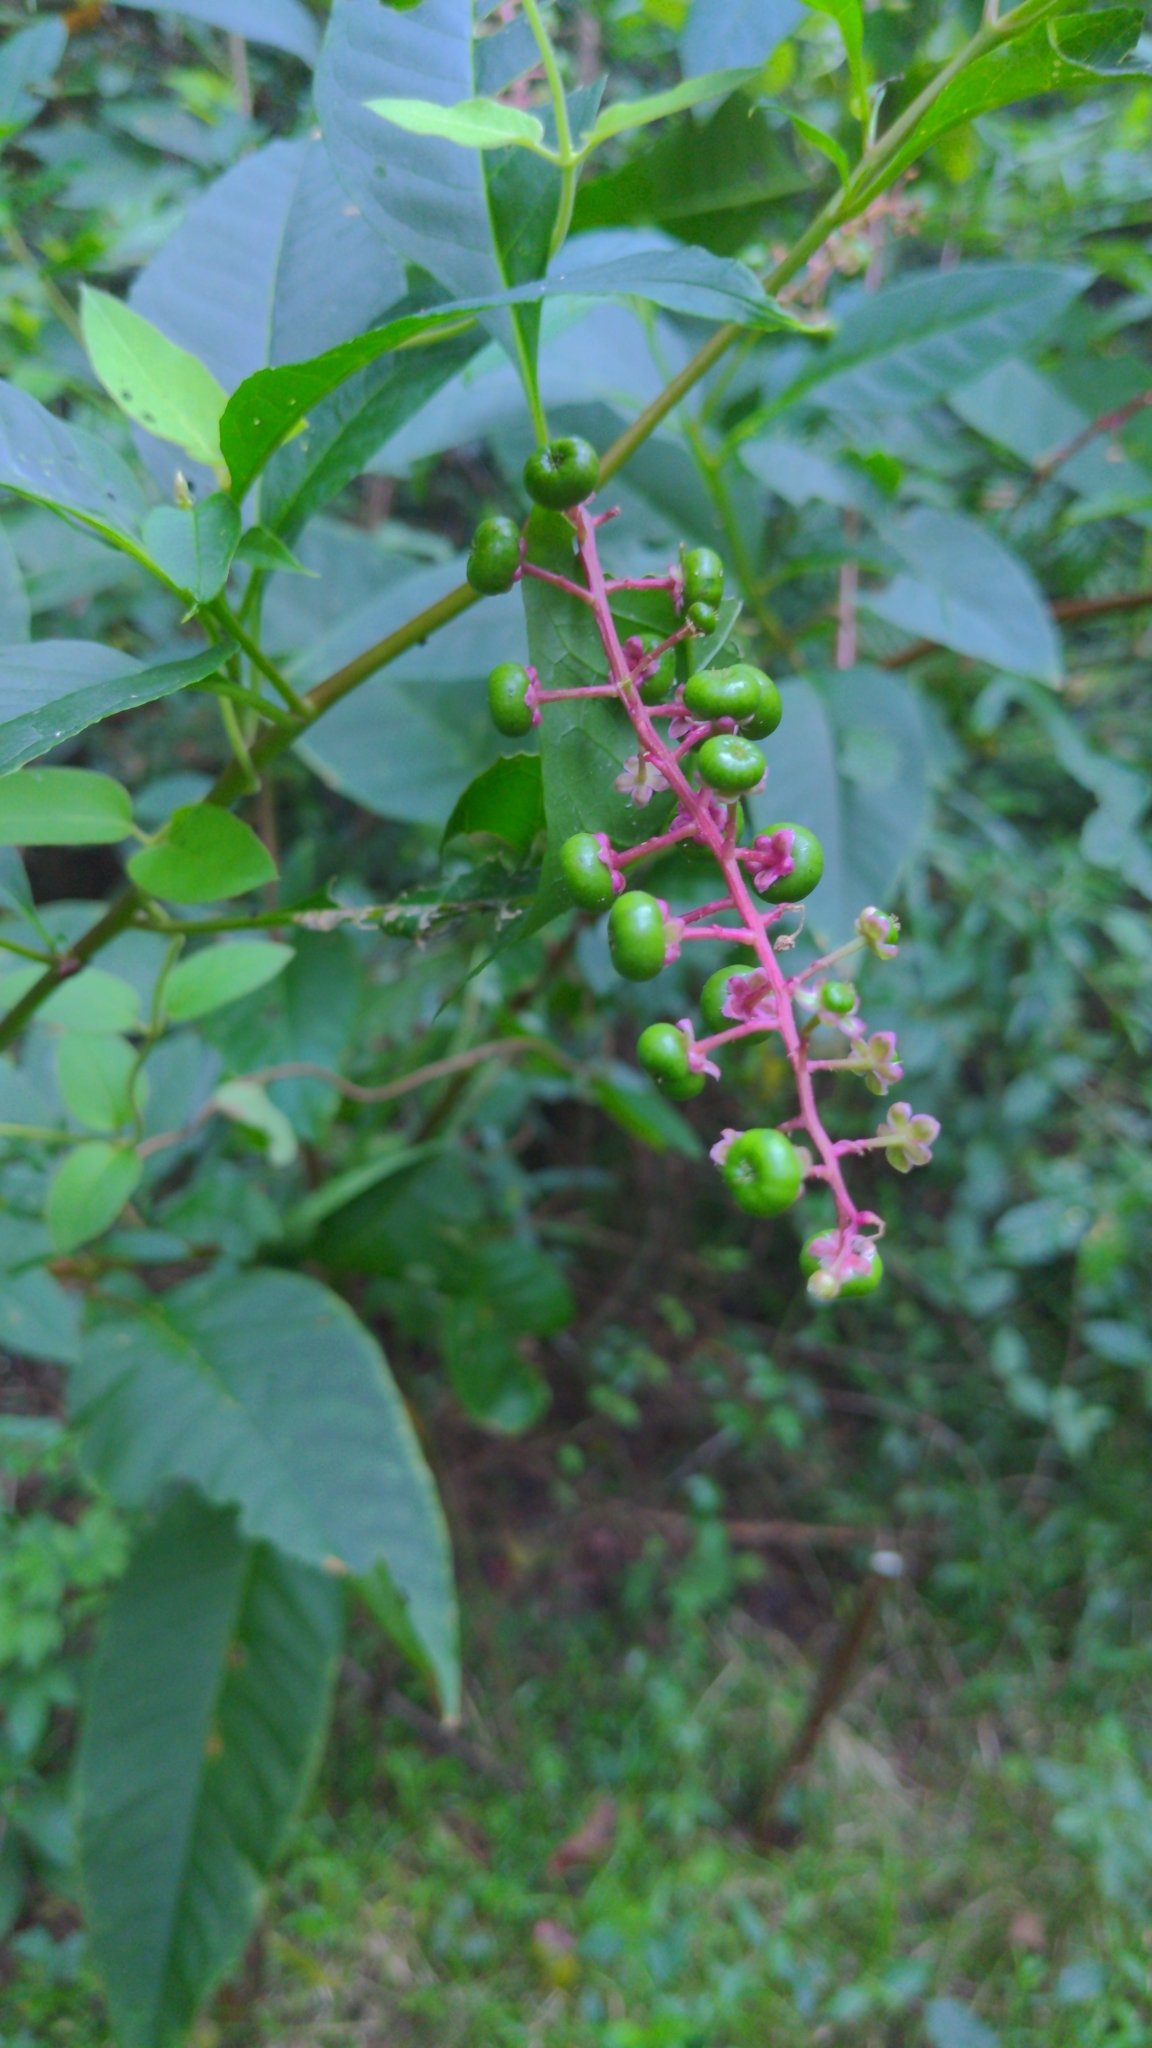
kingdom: Plantae
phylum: Tracheophyta
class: Magnoliopsida
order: Caryophyllales
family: Phytolaccaceae
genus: Phytolacca
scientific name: Phytolacca americana
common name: American pokeweed
